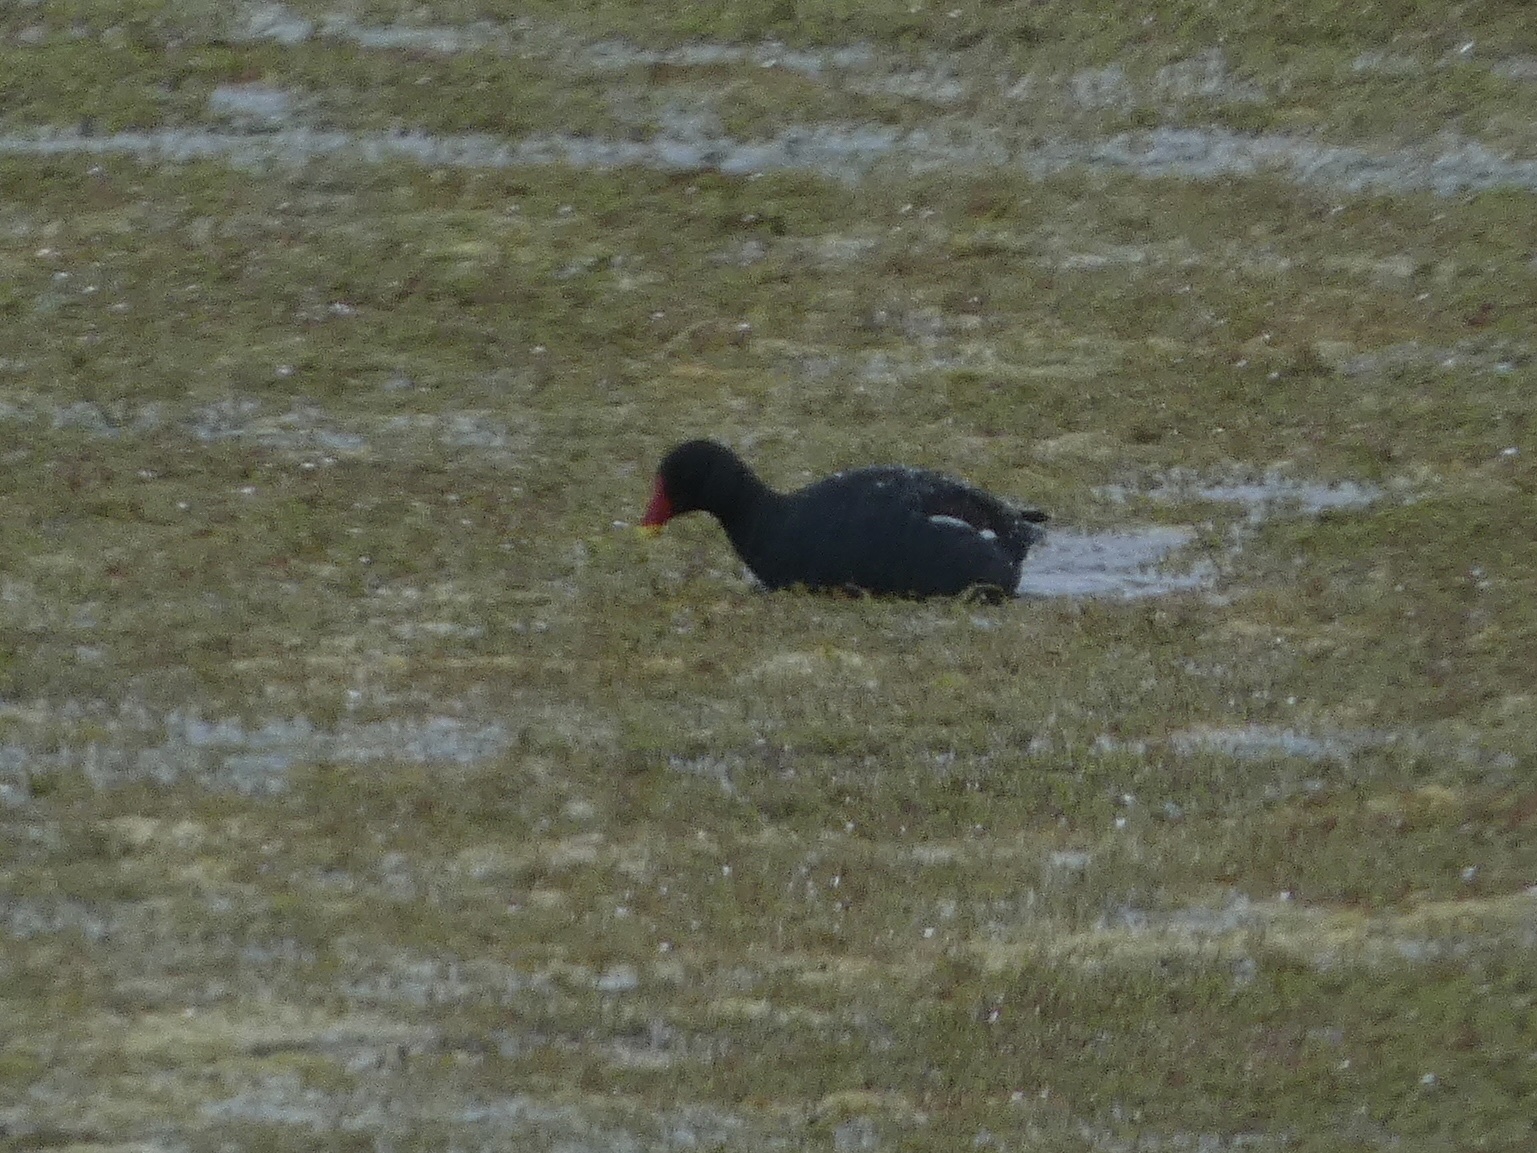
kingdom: Animalia
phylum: Chordata
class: Aves
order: Gruiformes
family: Rallidae
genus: Gallinula
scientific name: Gallinula chloropus
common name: Common moorhen
